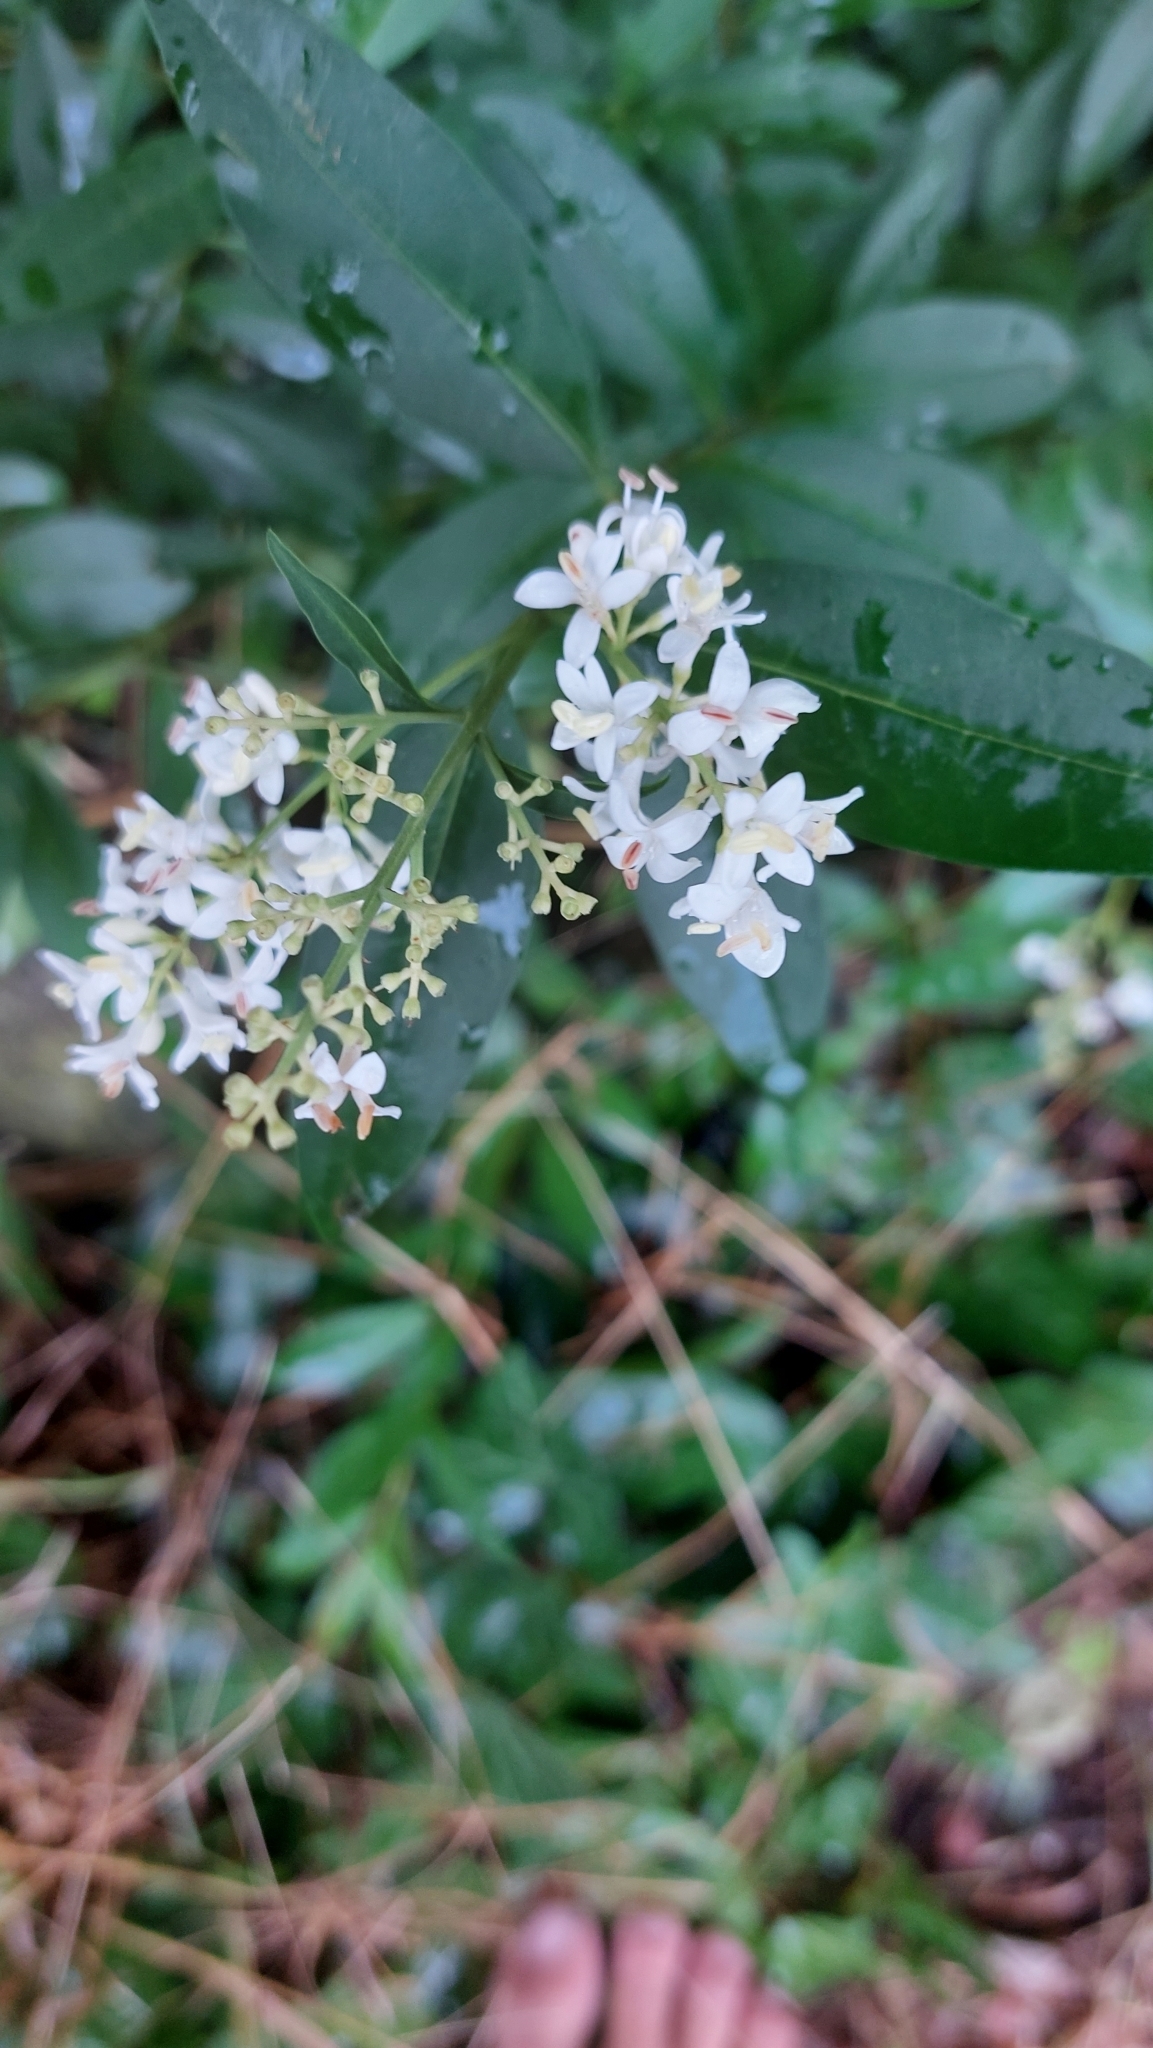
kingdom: Plantae
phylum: Tracheophyta
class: Magnoliopsida
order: Lamiales
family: Oleaceae
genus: Ligustrum
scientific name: Ligustrum vulgare
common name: Wild privet
